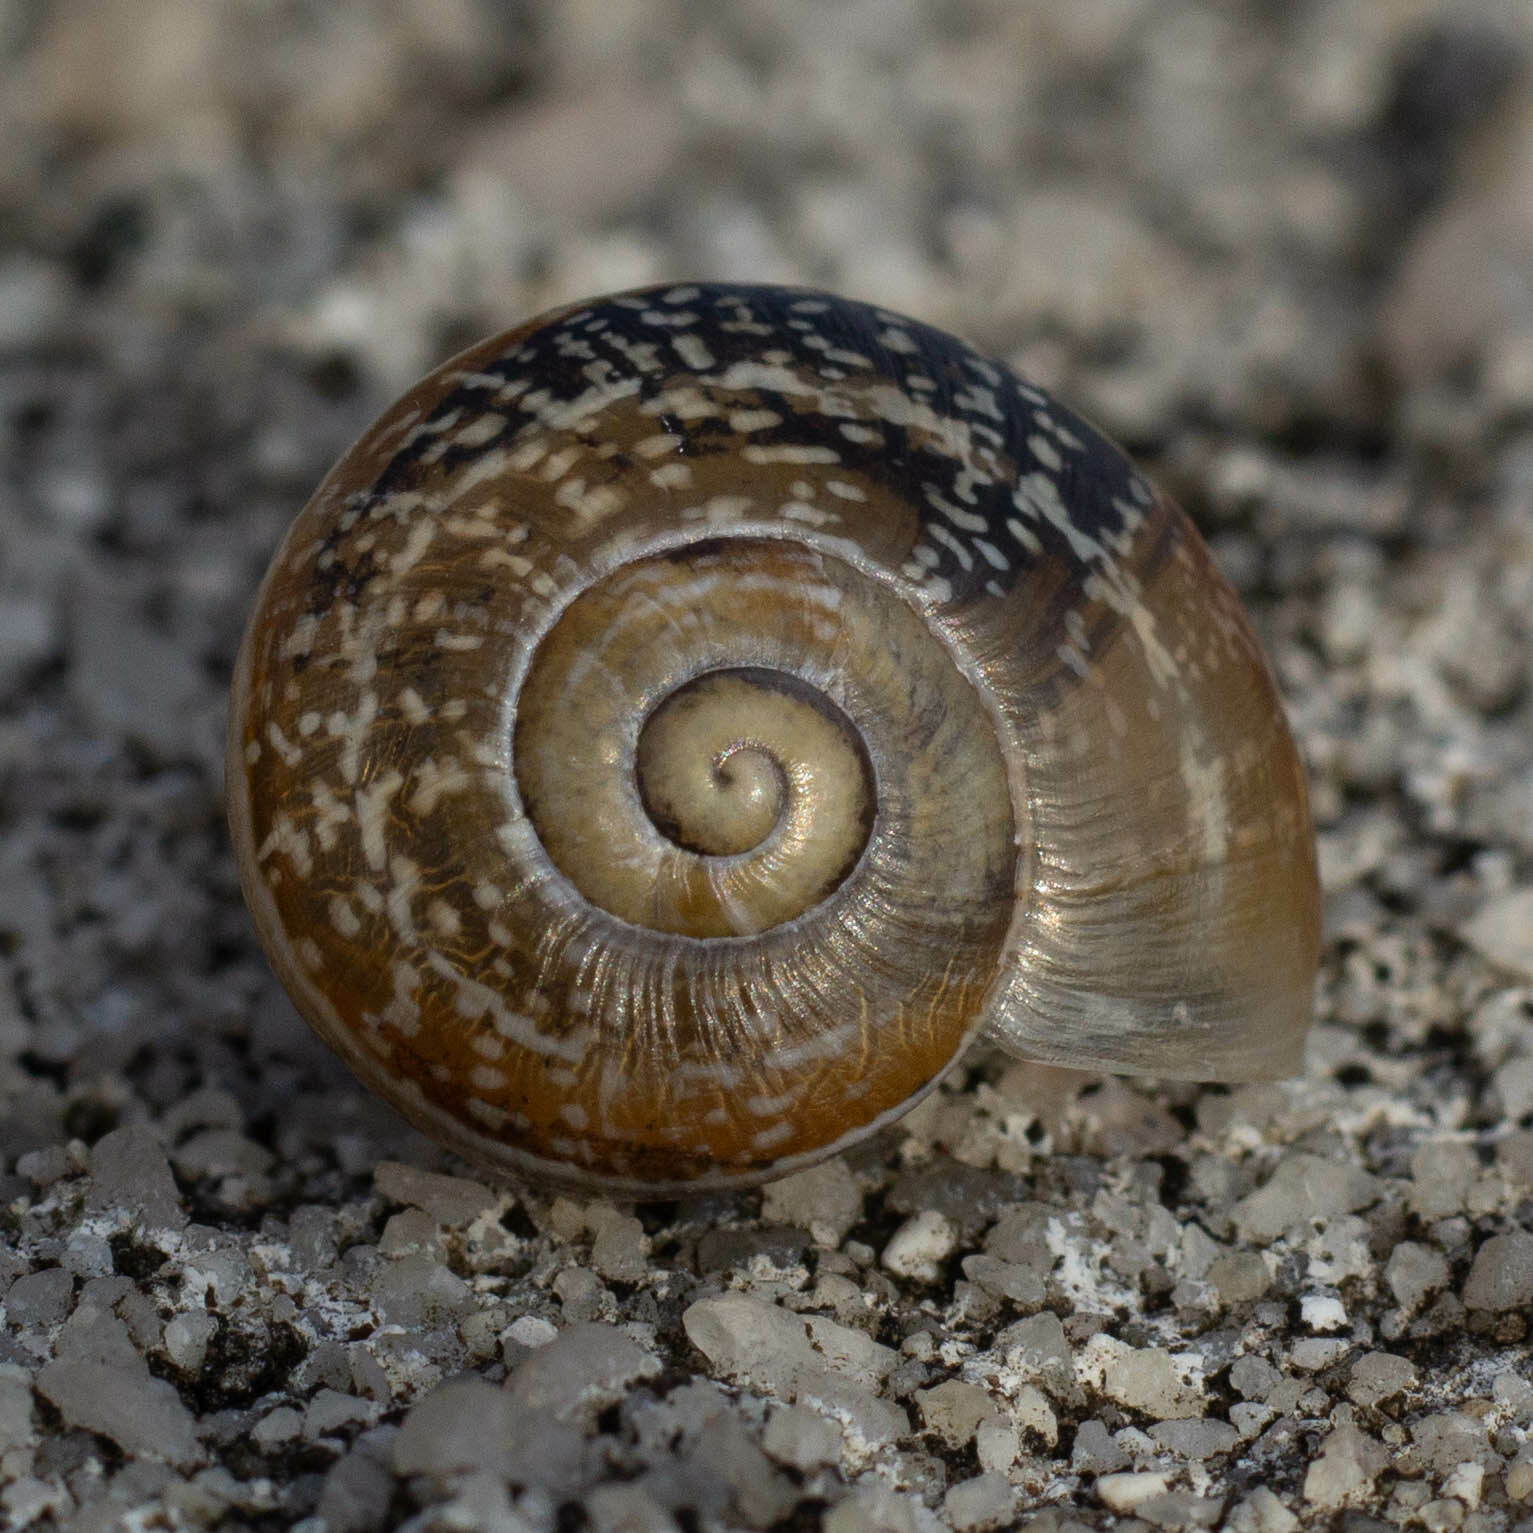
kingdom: Animalia
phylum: Mollusca
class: Gastropoda
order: Stylommatophora
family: Helicidae
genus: Otala
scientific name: Otala lactea
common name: Milk snail
